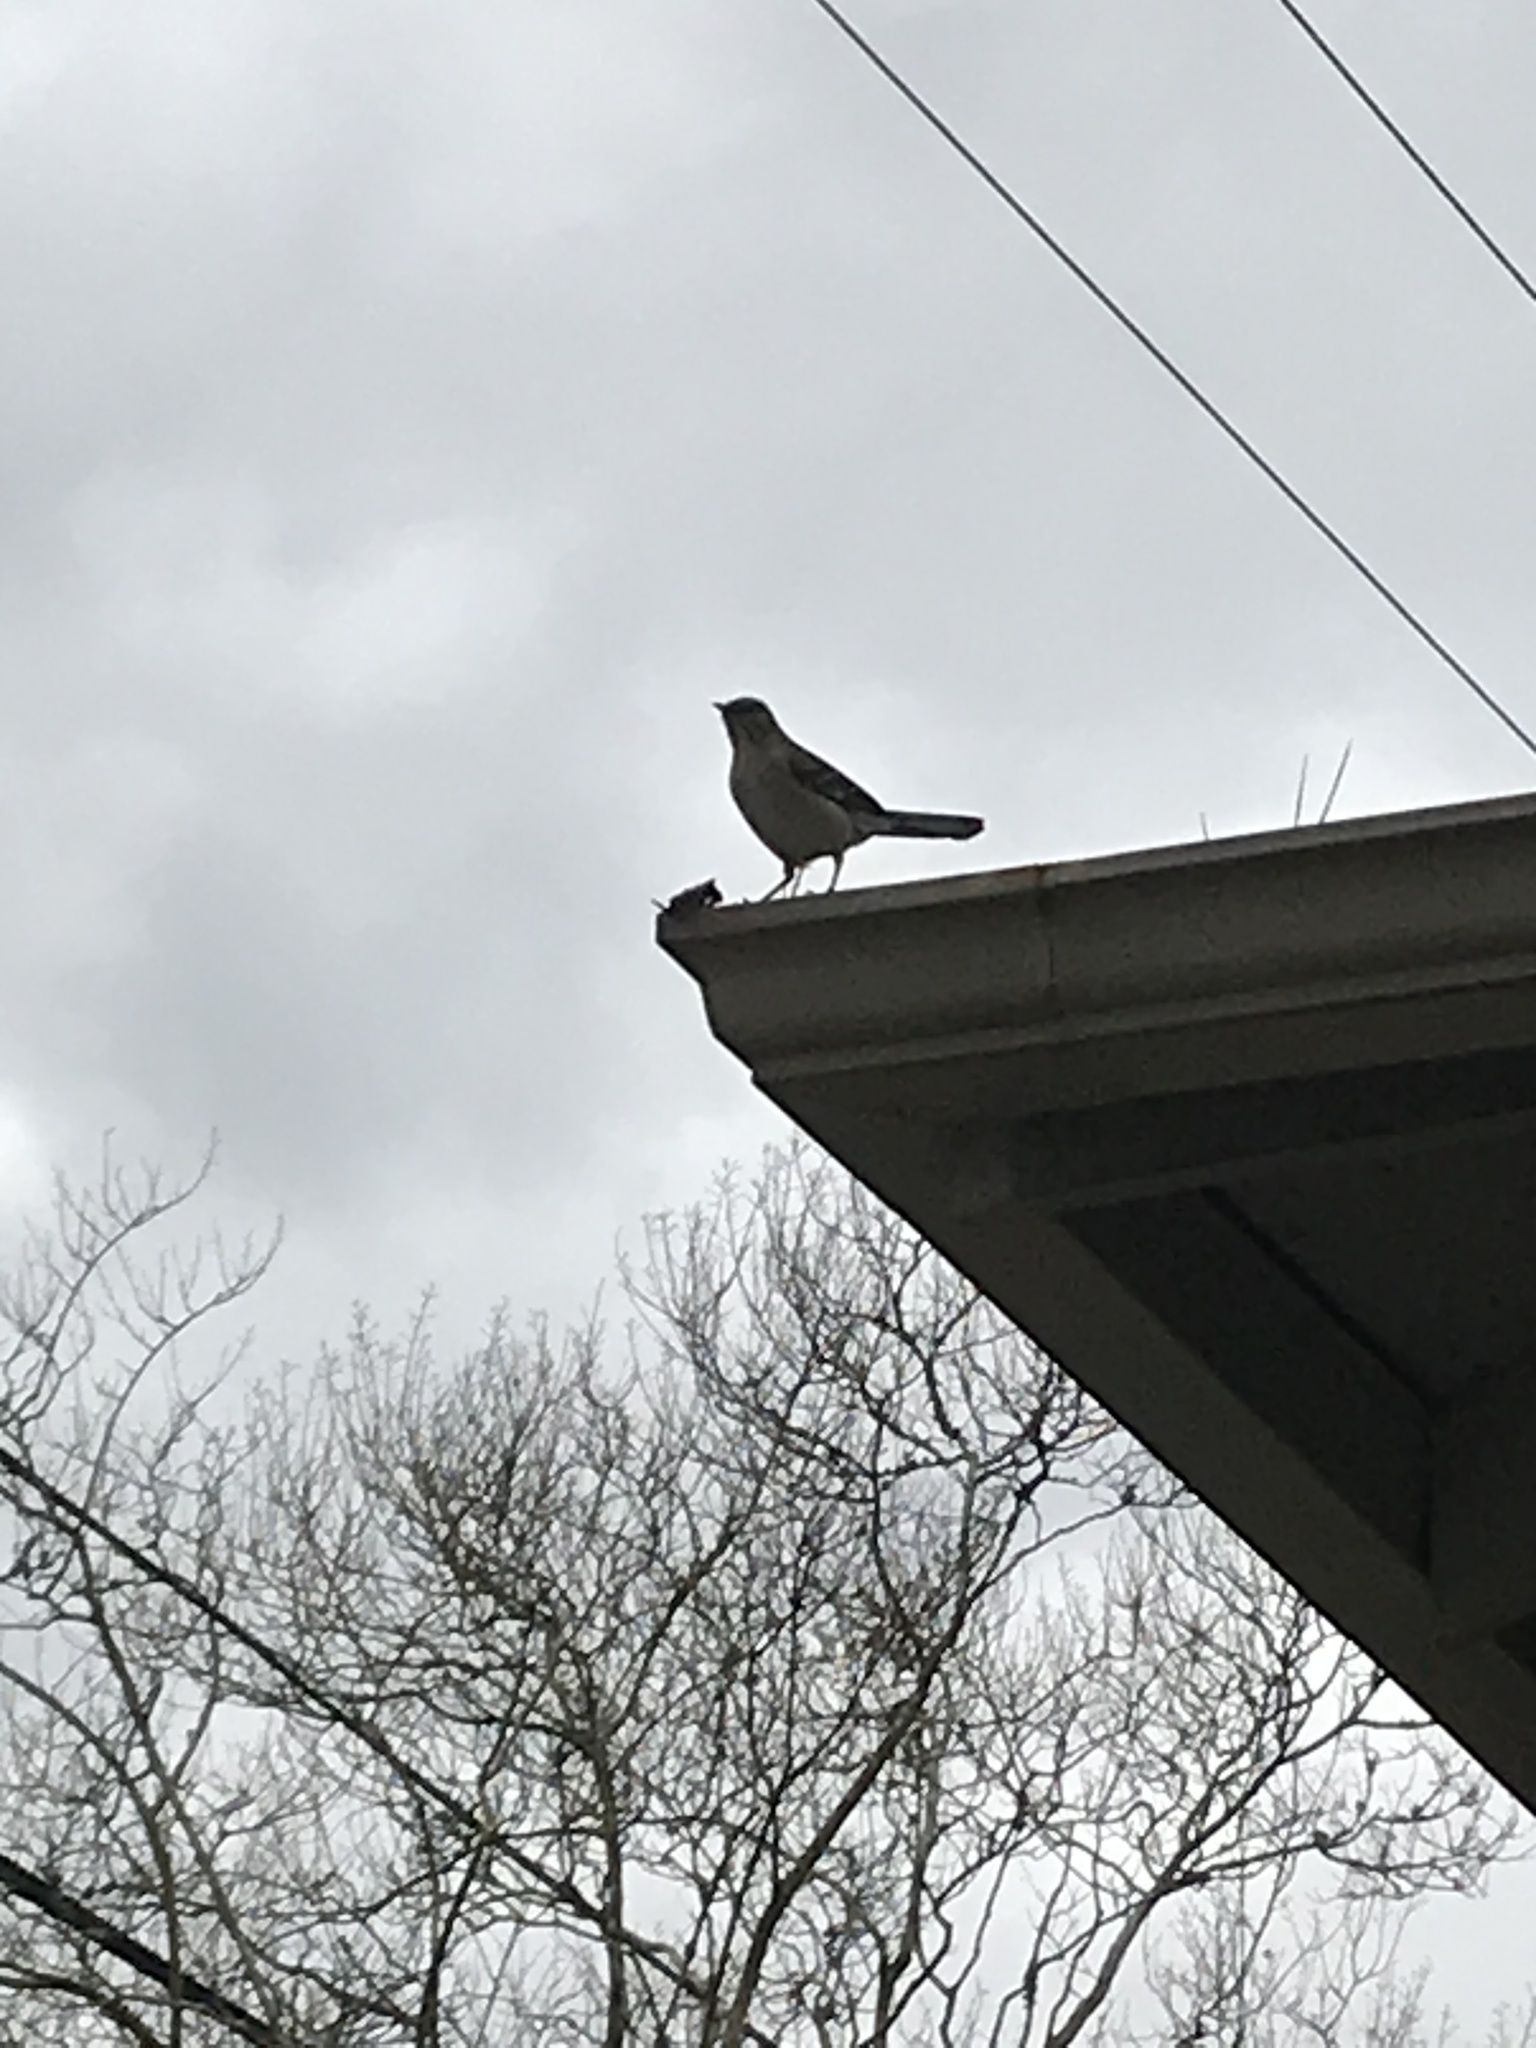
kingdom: Animalia
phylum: Chordata
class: Aves
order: Passeriformes
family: Mimidae
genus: Mimus
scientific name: Mimus polyglottos
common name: Northern mockingbird
